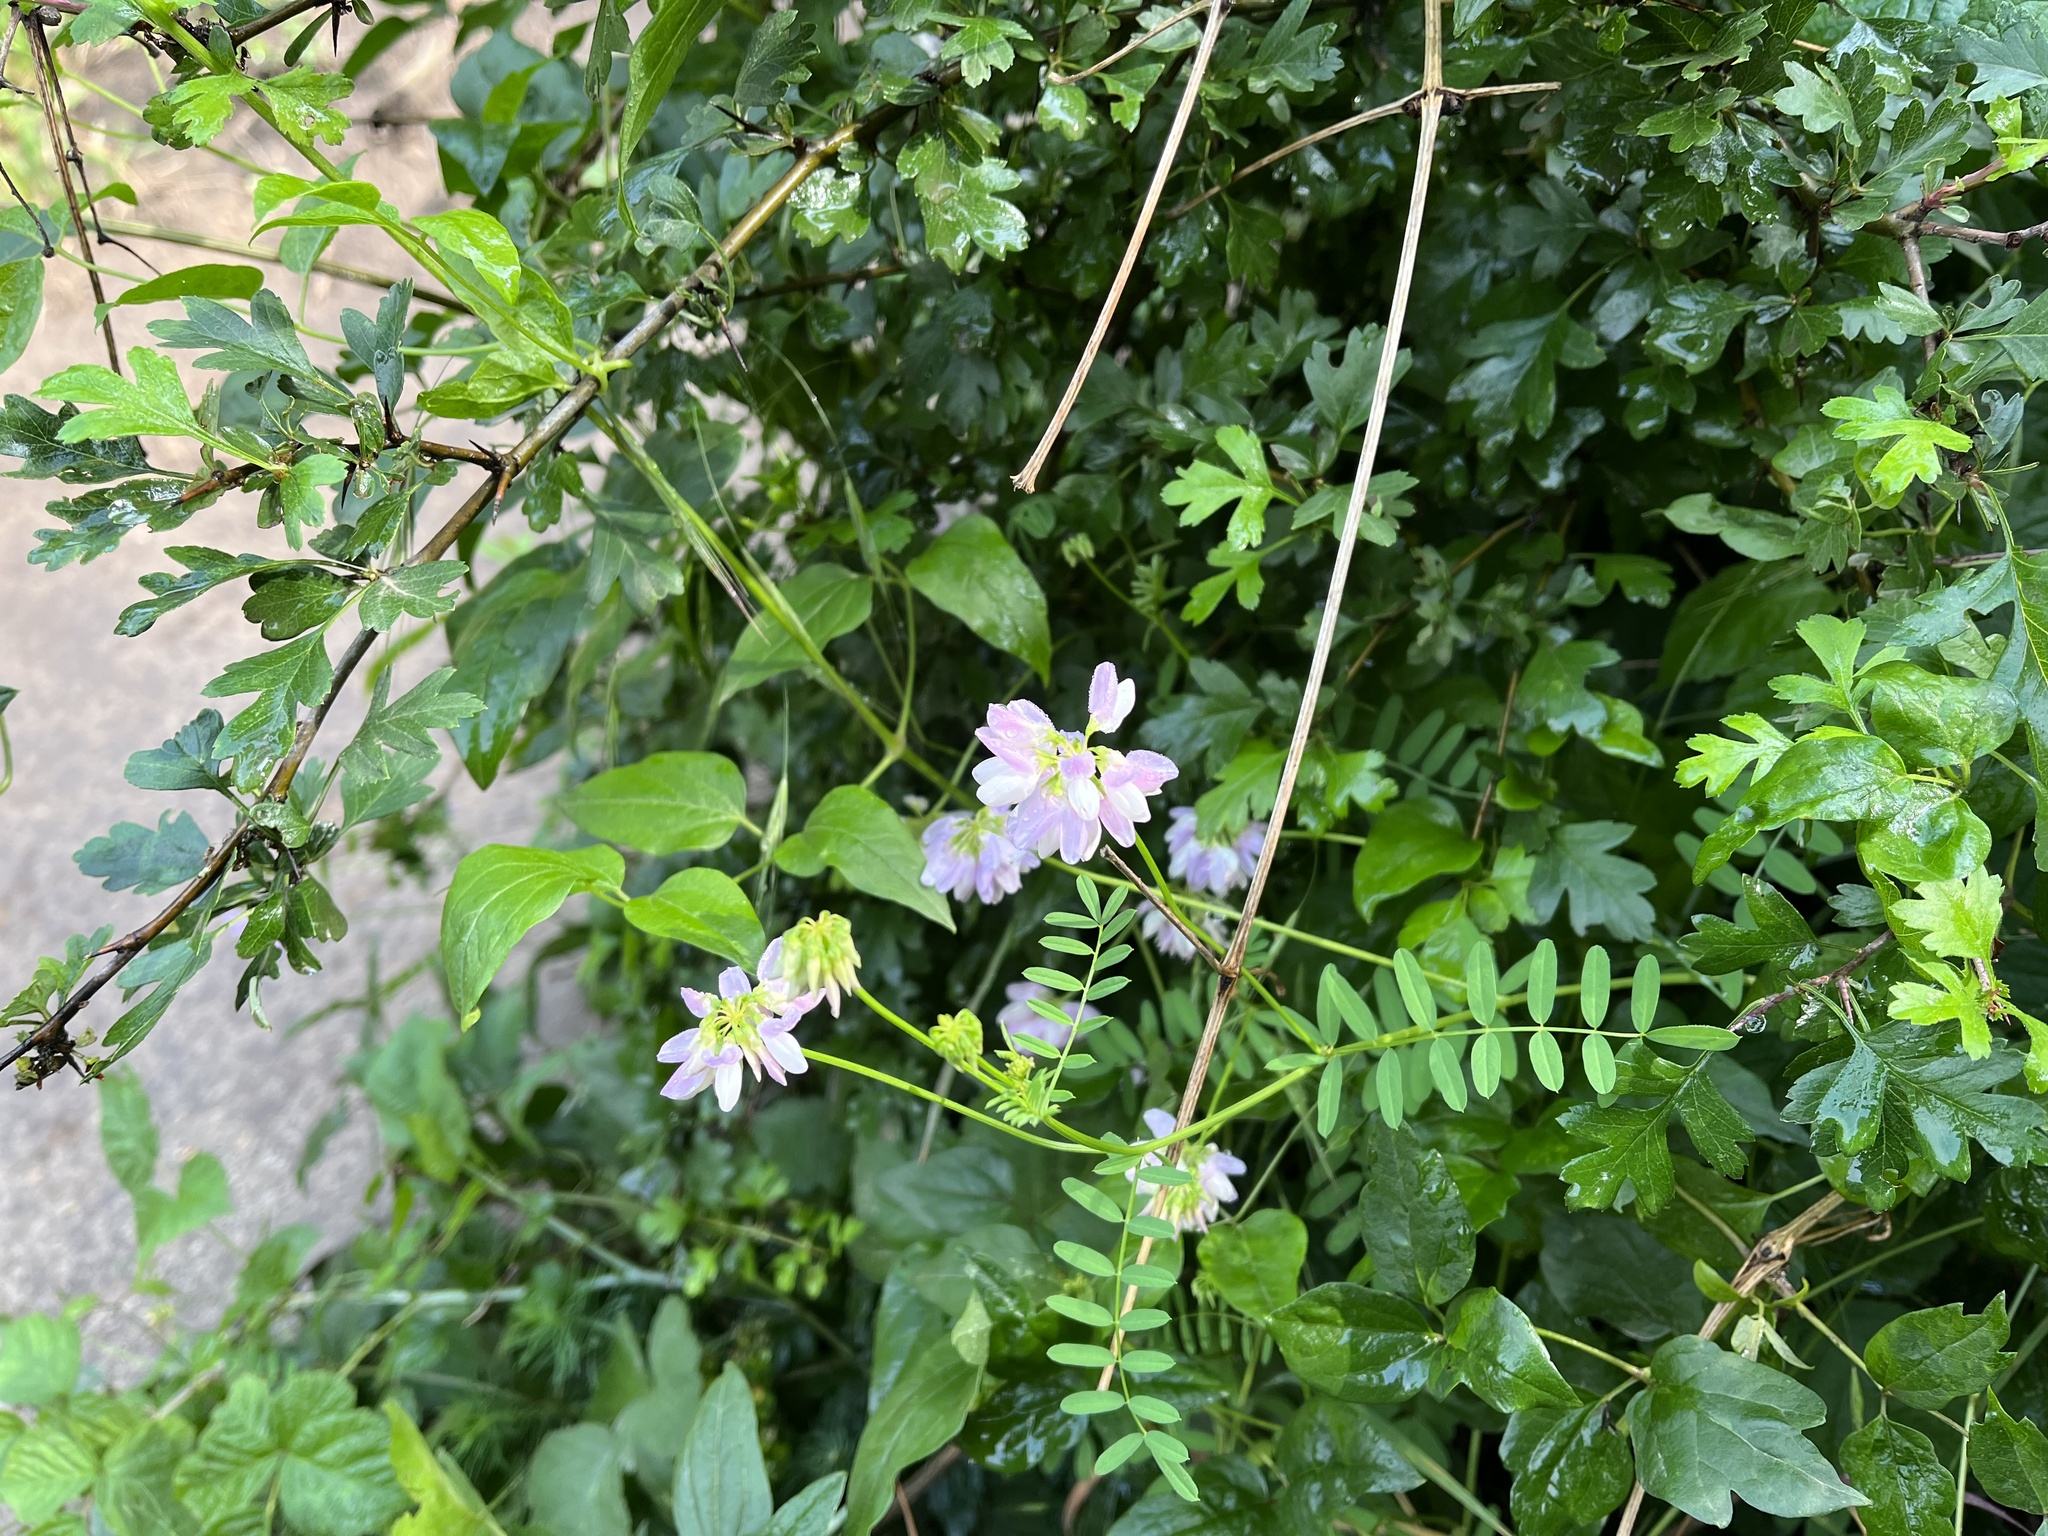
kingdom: Plantae
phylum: Tracheophyta
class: Magnoliopsida
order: Fabales
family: Fabaceae
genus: Coronilla
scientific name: Coronilla varia
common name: Crownvetch
